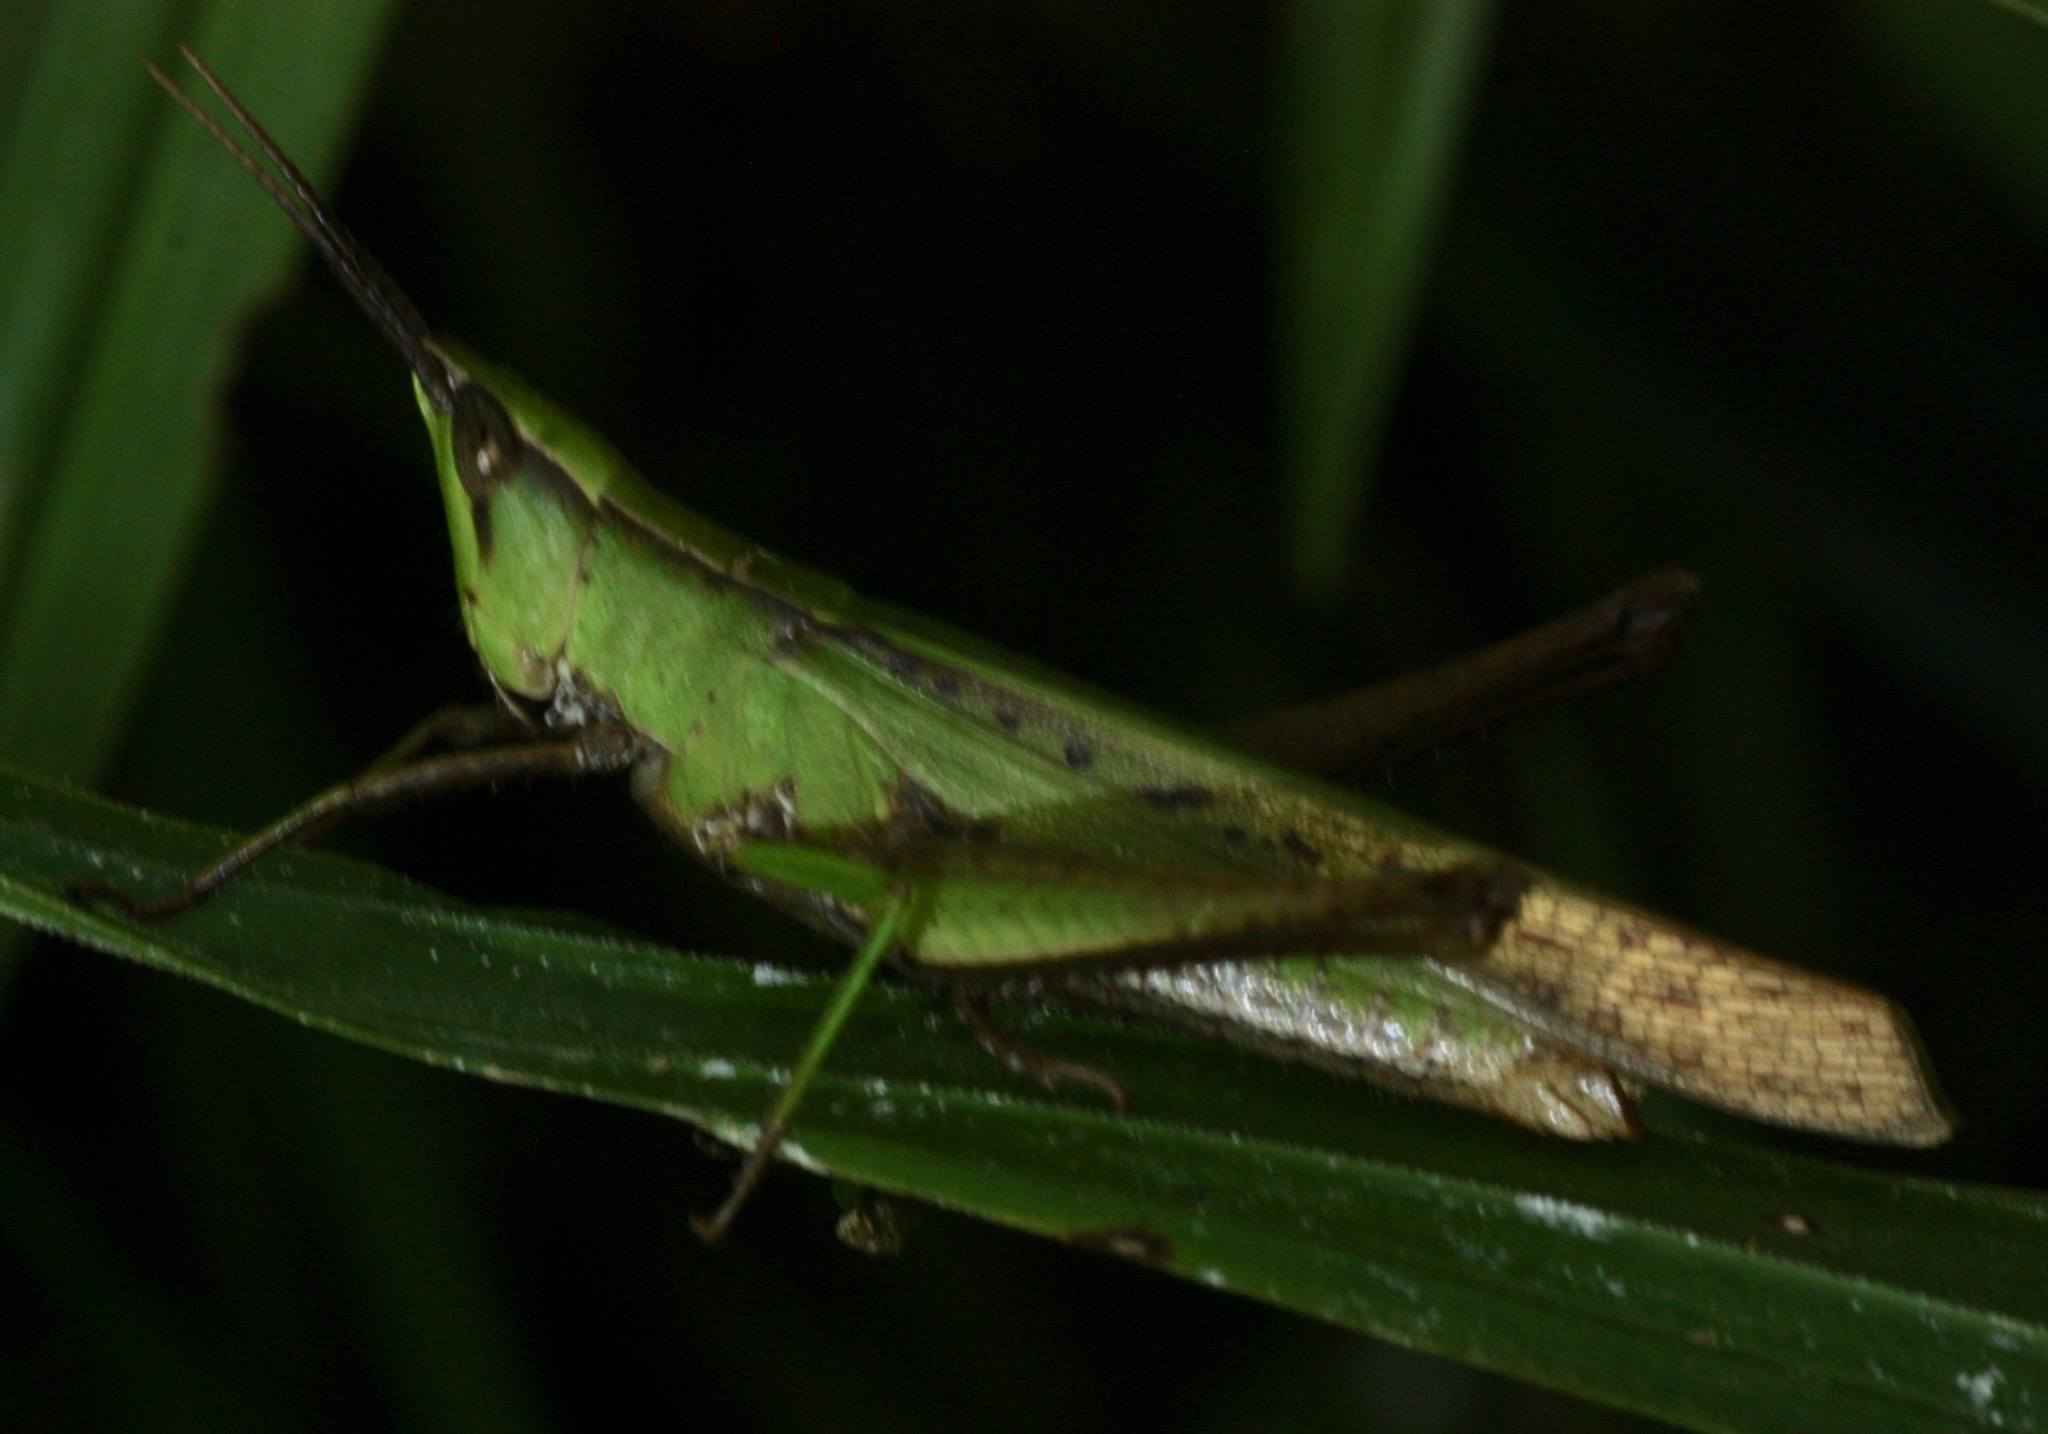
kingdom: Animalia
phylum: Arthropoda
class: Insecta
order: Orthoptera
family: Acrididae
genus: Metaleptea
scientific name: Metaleptea brevicornis
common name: Clipped-wing grasshopper
